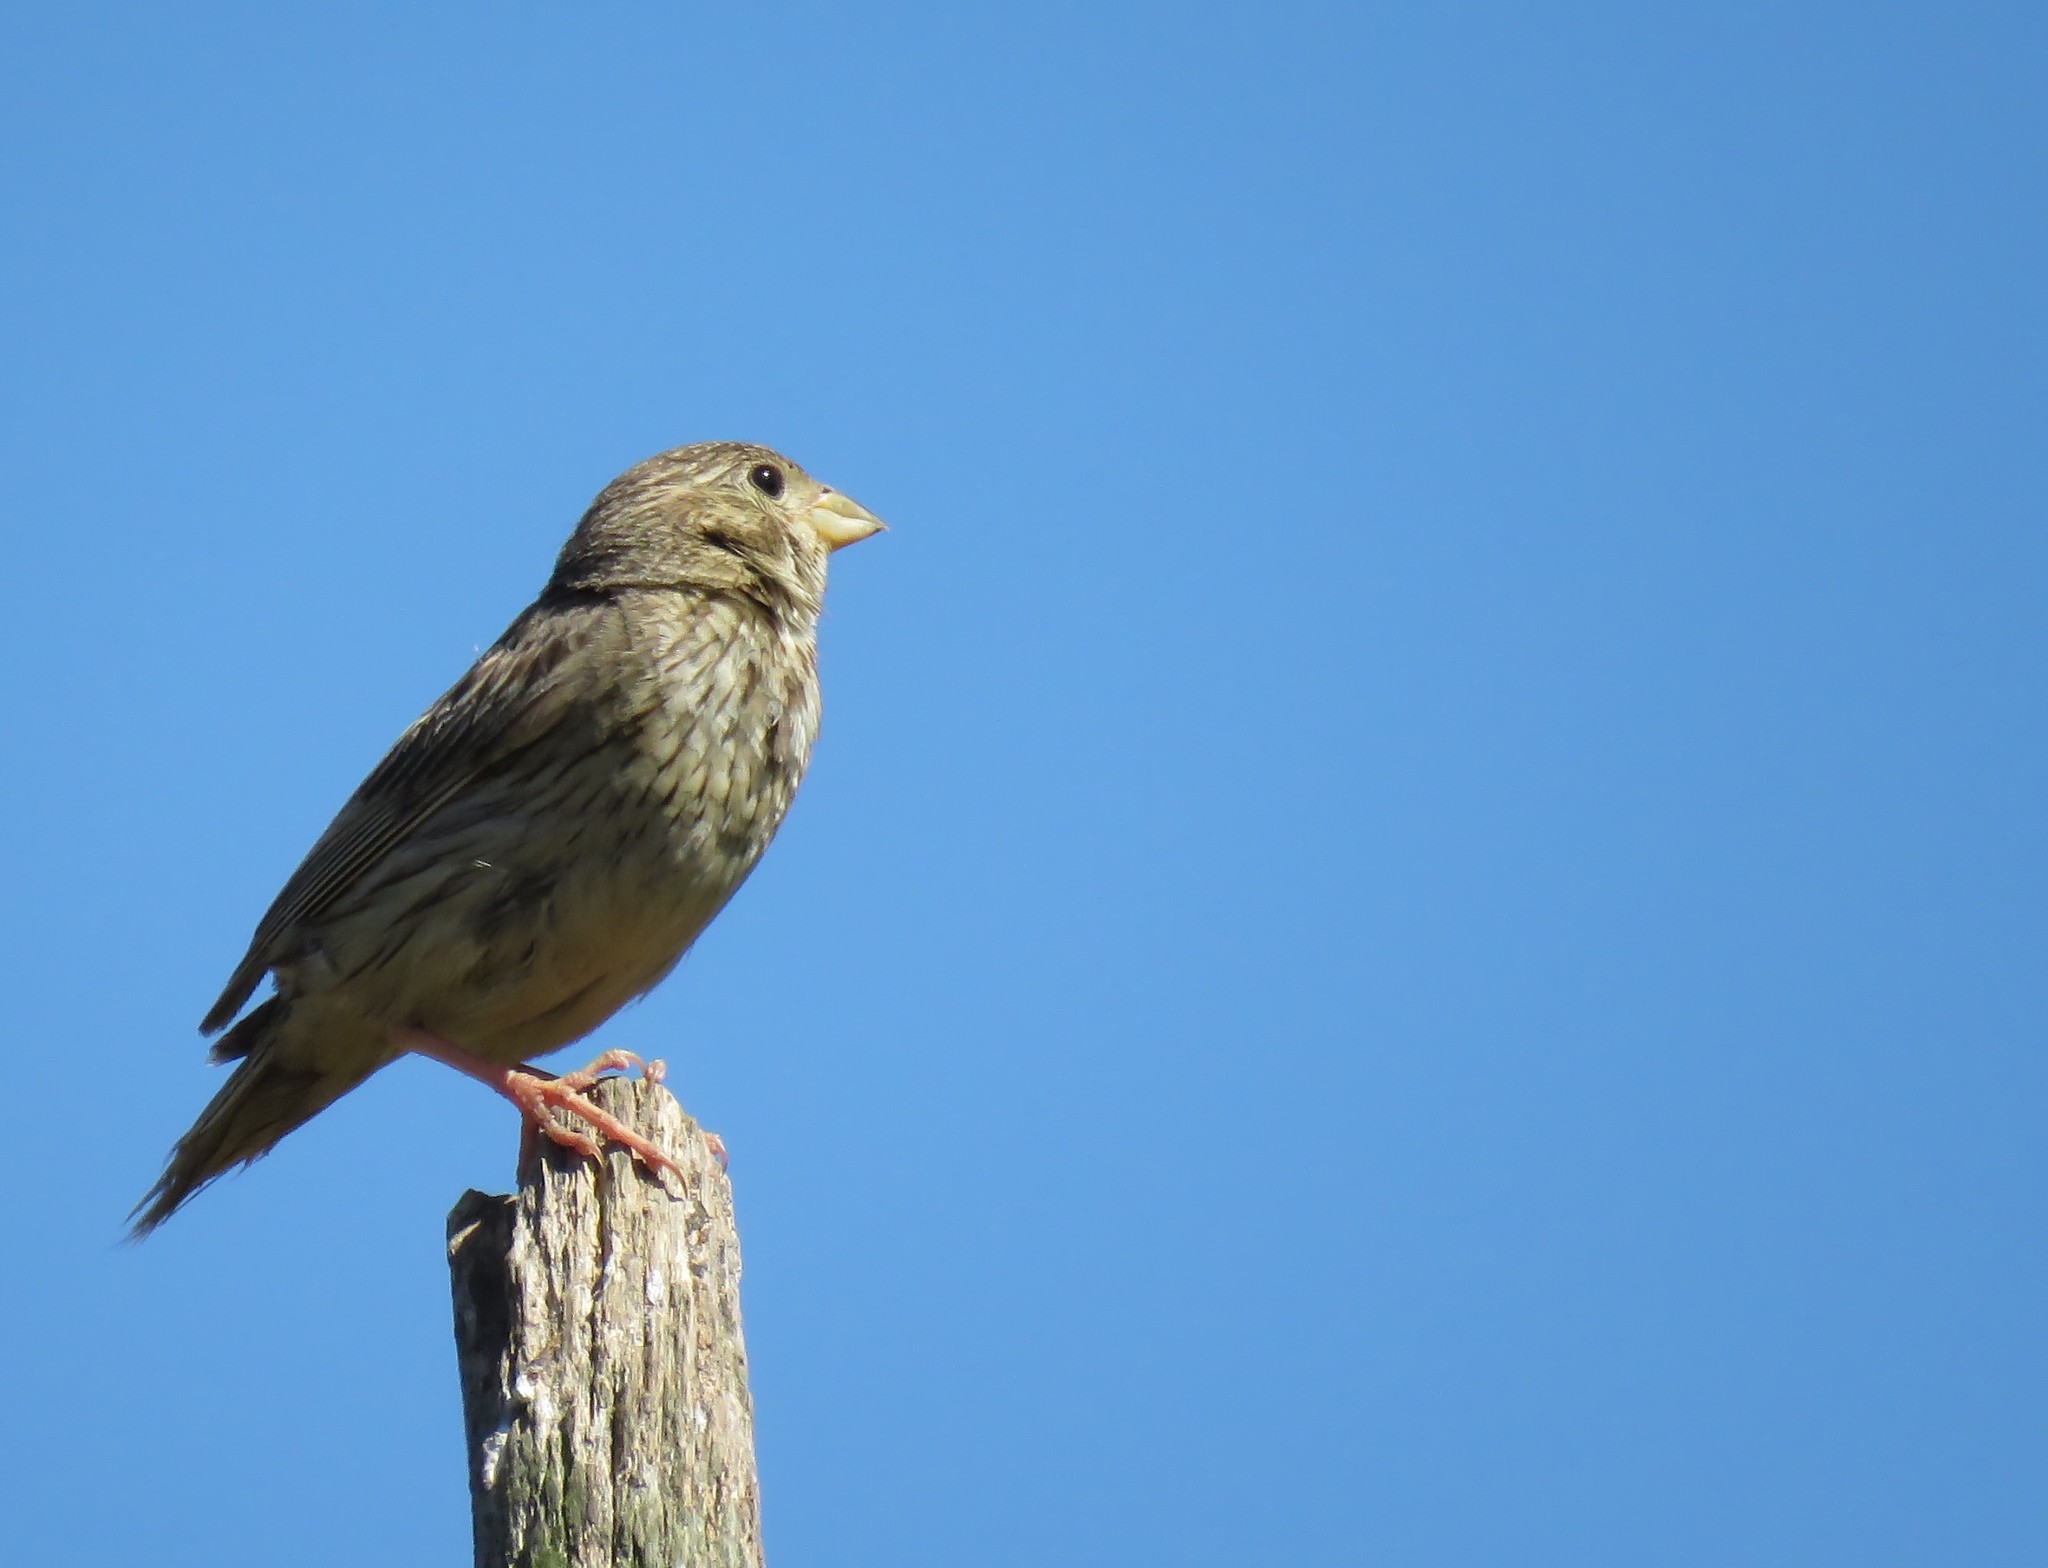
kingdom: Animalia
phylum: Chordata
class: Aves
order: Passeriformes
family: Emberizidae
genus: Emberiza
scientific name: Emberiza calandra
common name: Corn bunting
